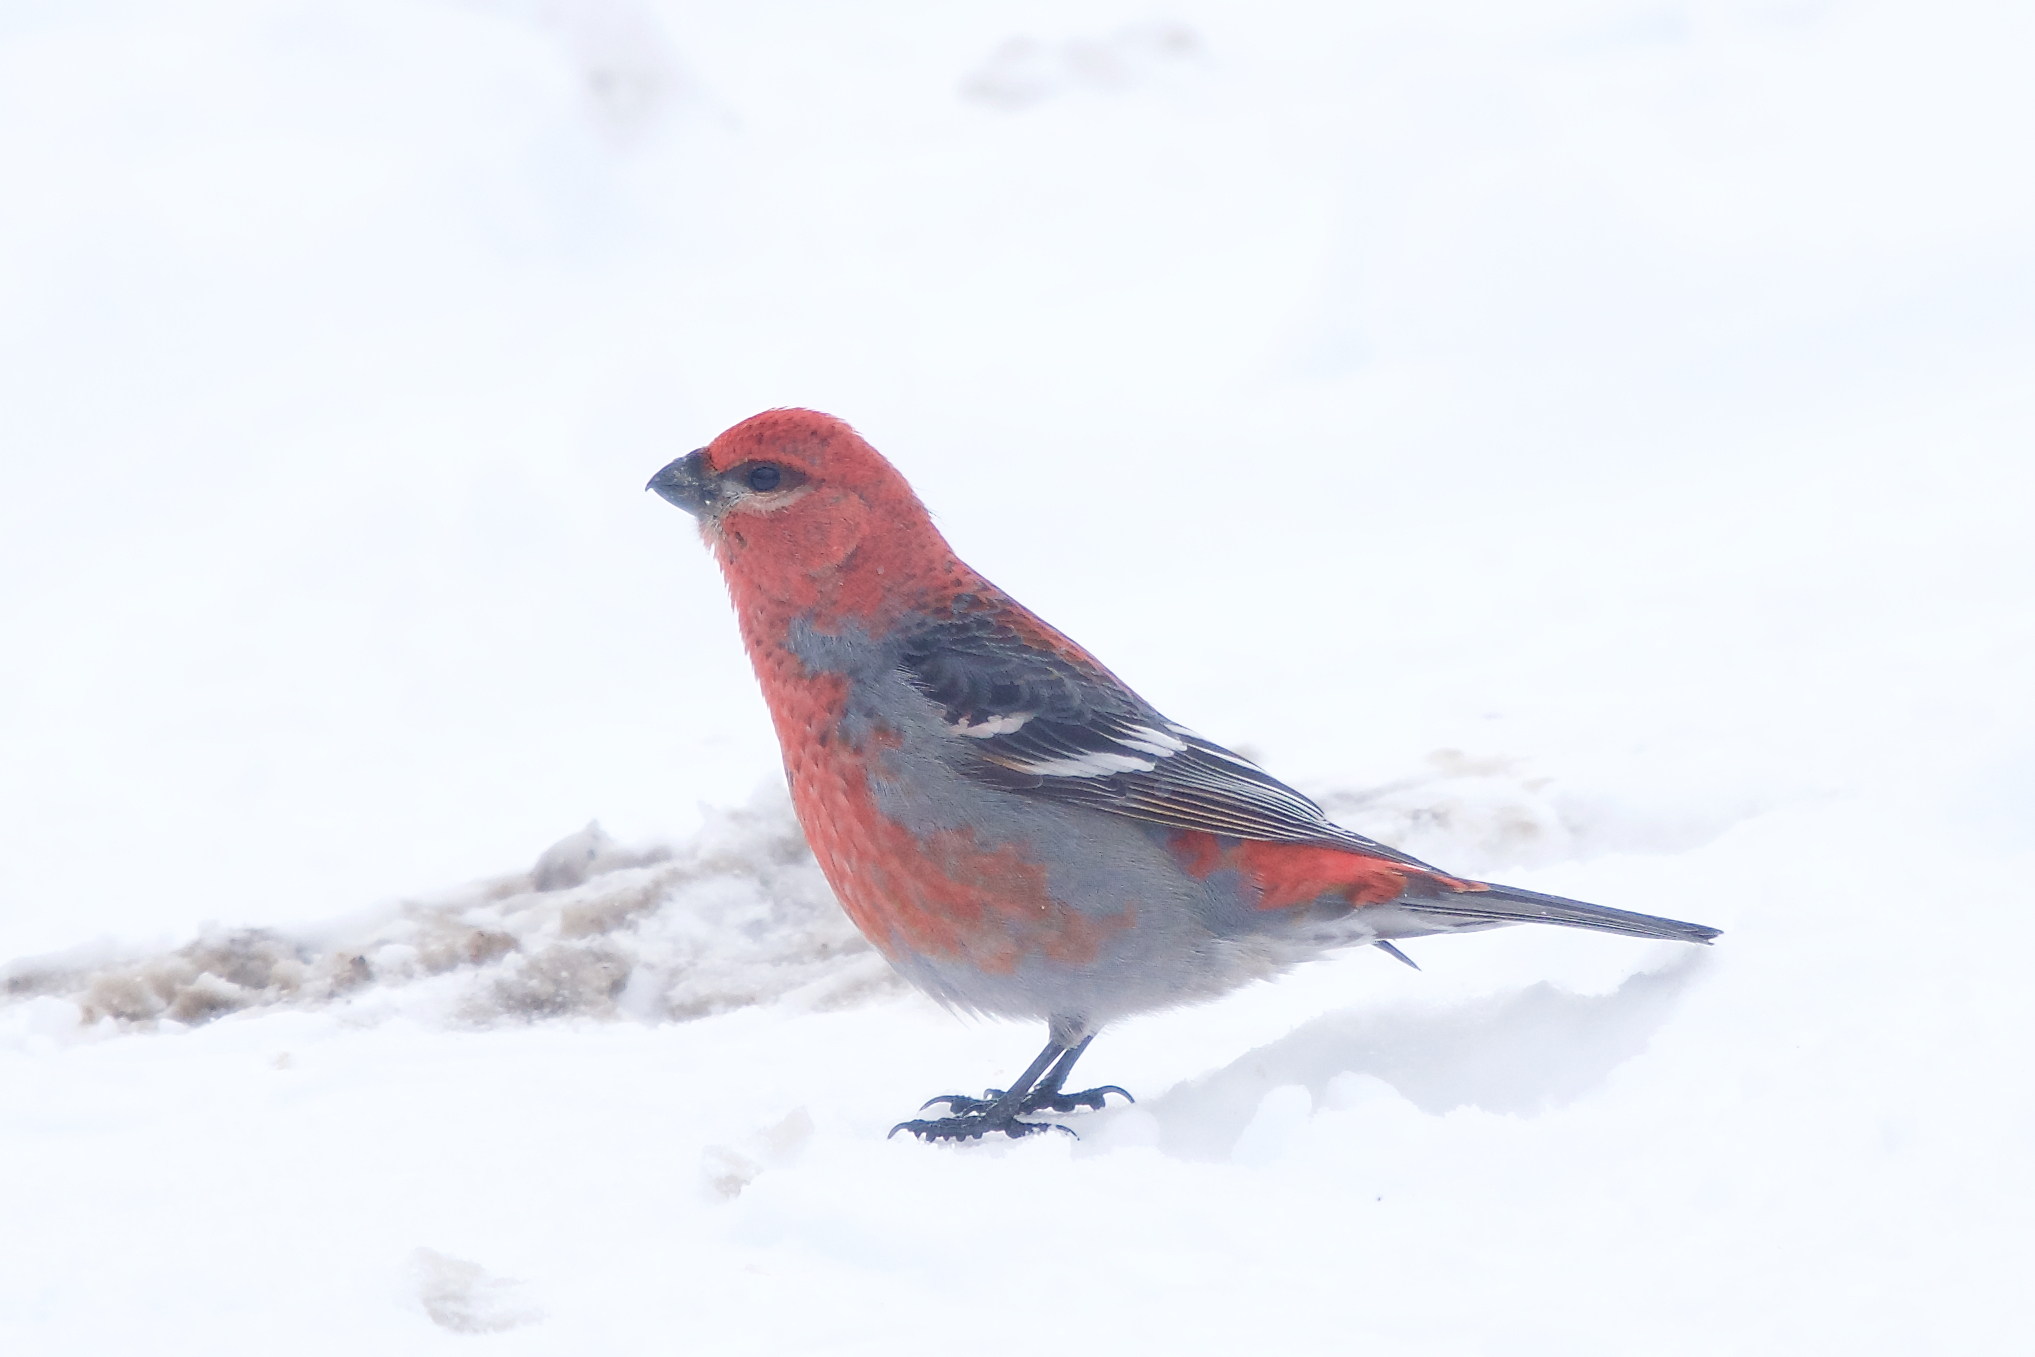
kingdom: Animalia
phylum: Chordata
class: Aves
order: Passeriformes
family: Fringillidae
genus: Pinicola
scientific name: Pinicola enucleator
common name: Pine grosbeak
